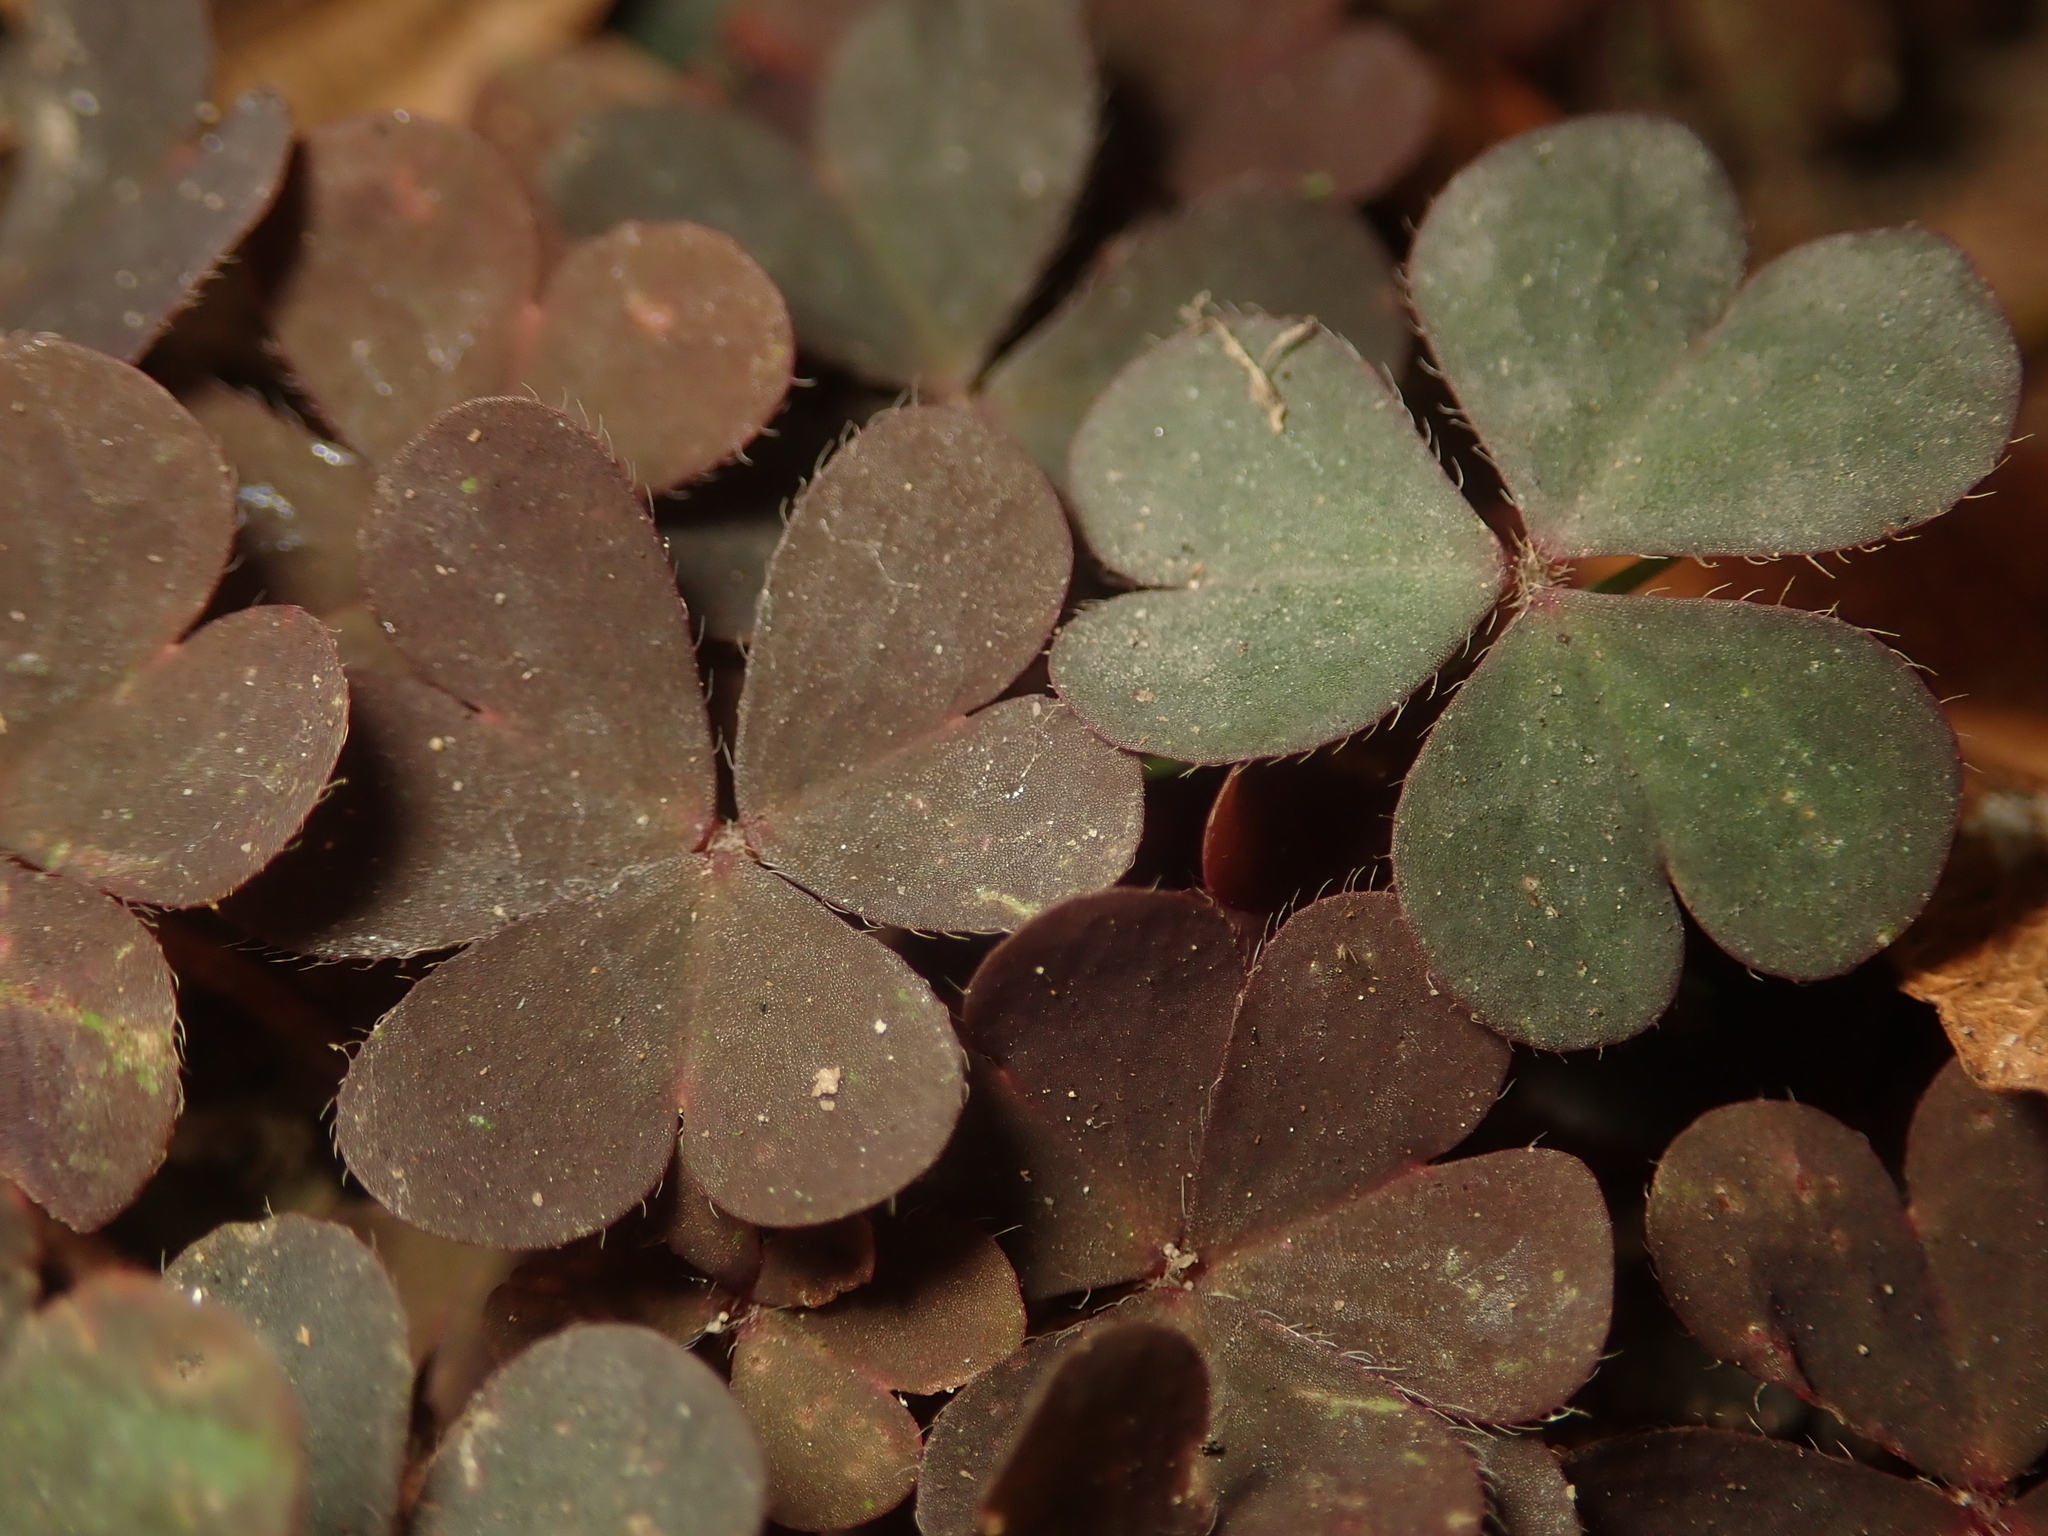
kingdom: Plantae
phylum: Tracheophyta
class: Magnoliopsida
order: Oxalidales
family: Oxalidaceae
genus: Oxalis
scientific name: Oxalis corniculata
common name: Procumbent yellow-sorrel
